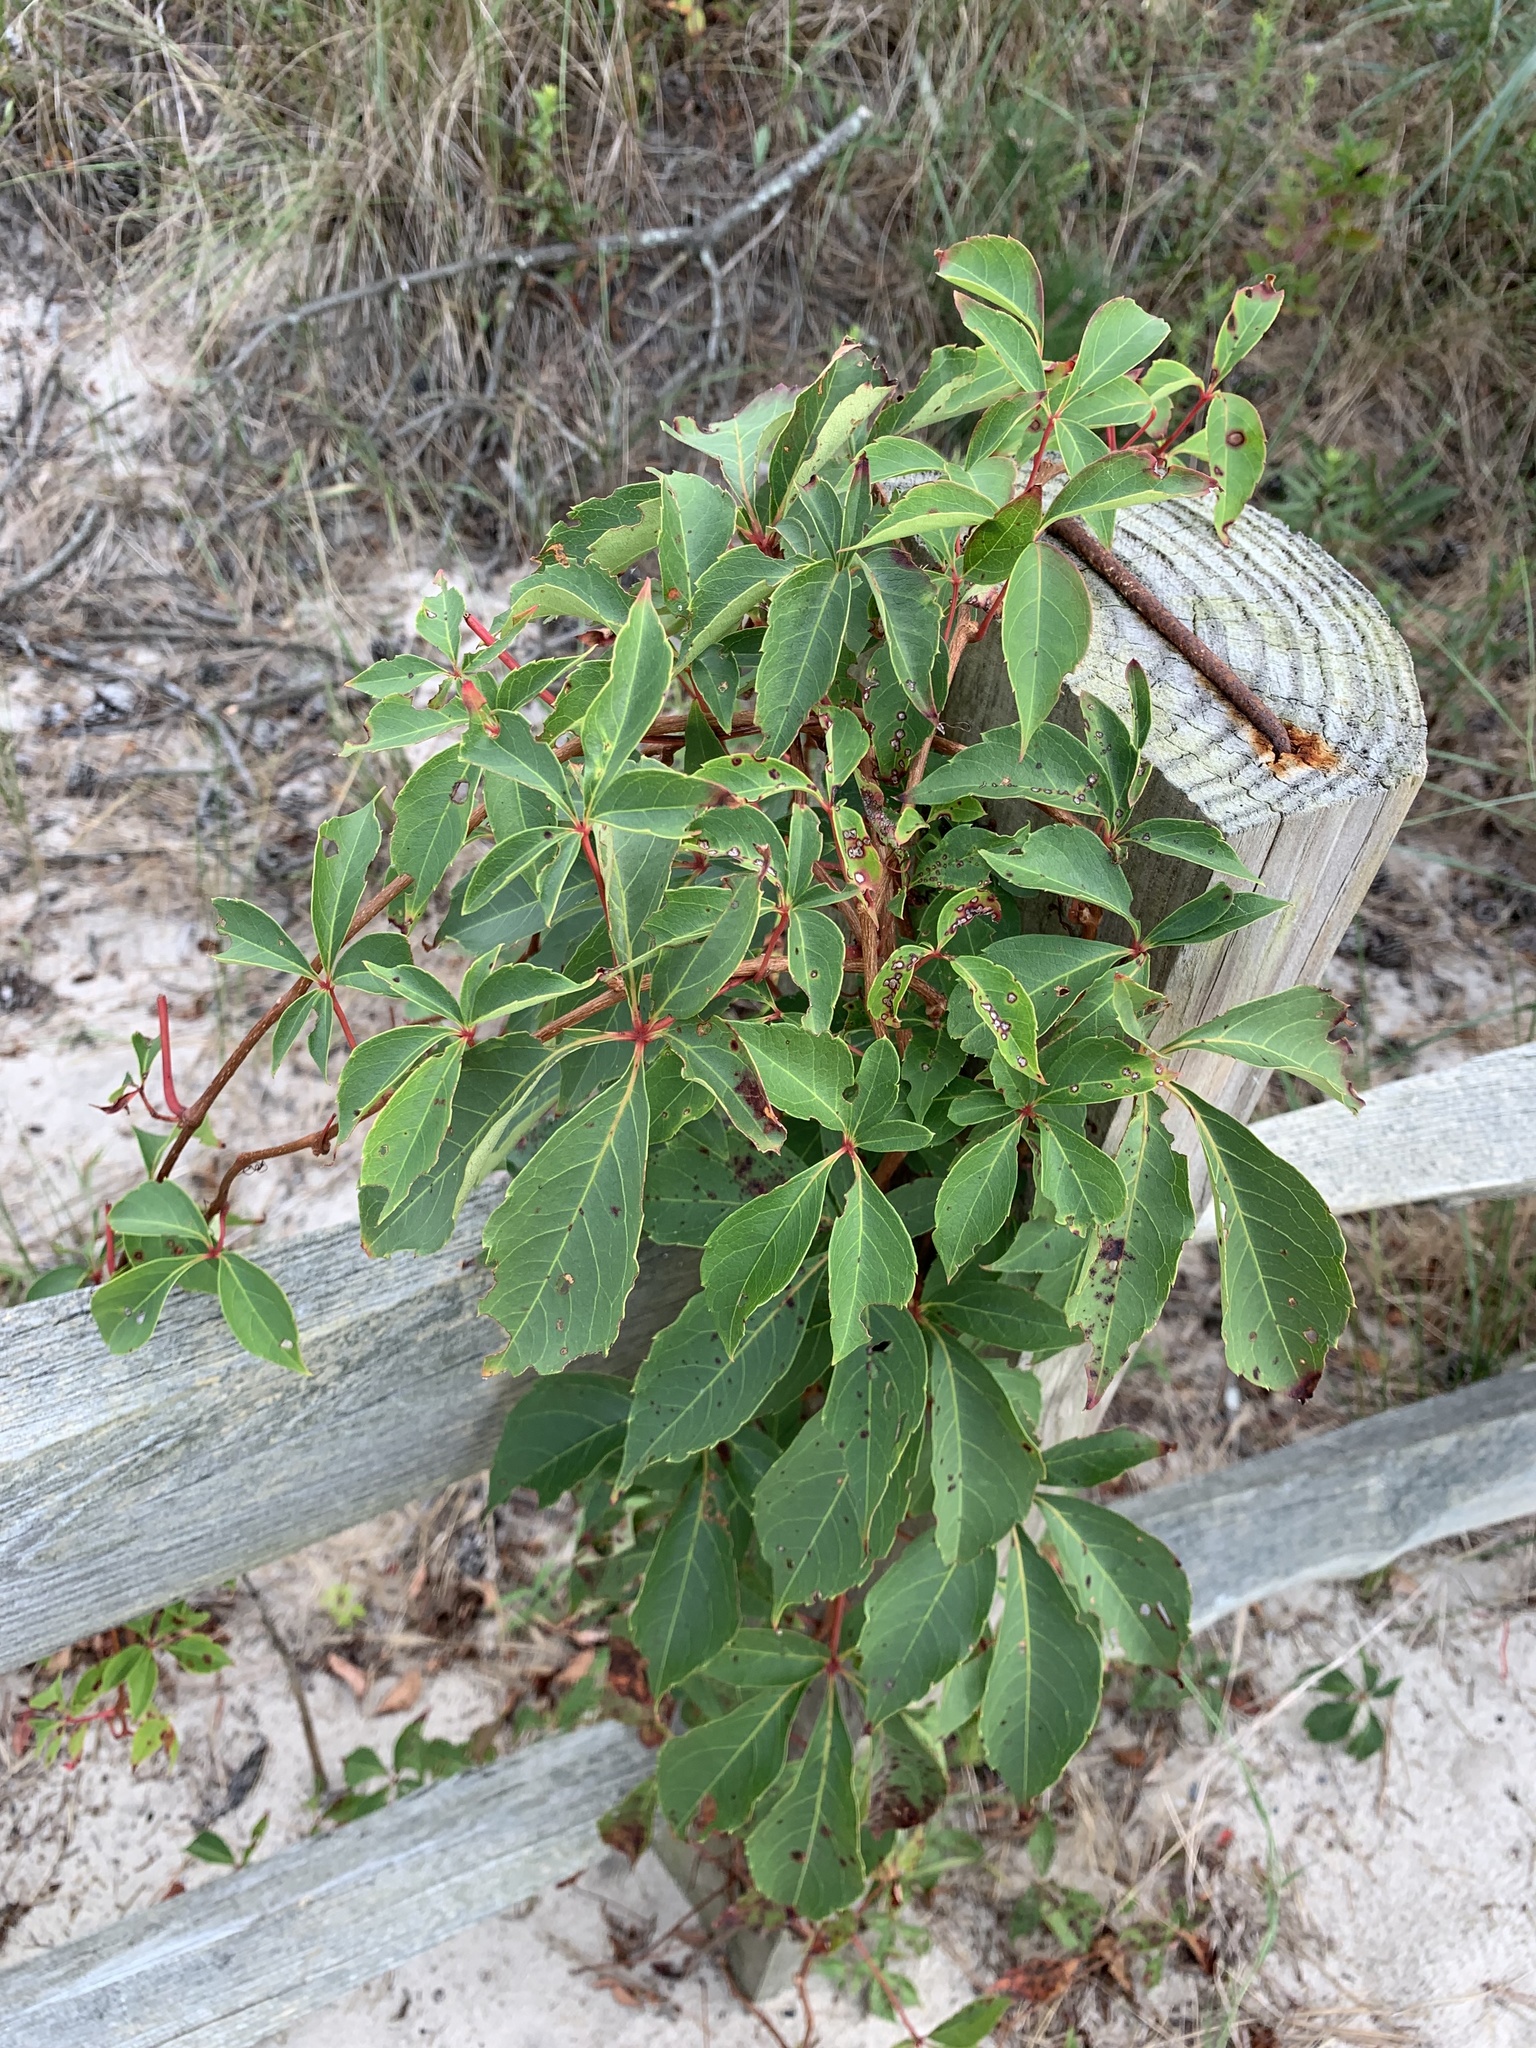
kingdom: Plantae
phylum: Tracheophyta
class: Magnoliopsida
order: Vitales
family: Vitaceae
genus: Parthenocissus
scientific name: Parthenocissus quinquefolia
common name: Virginia-creeper
